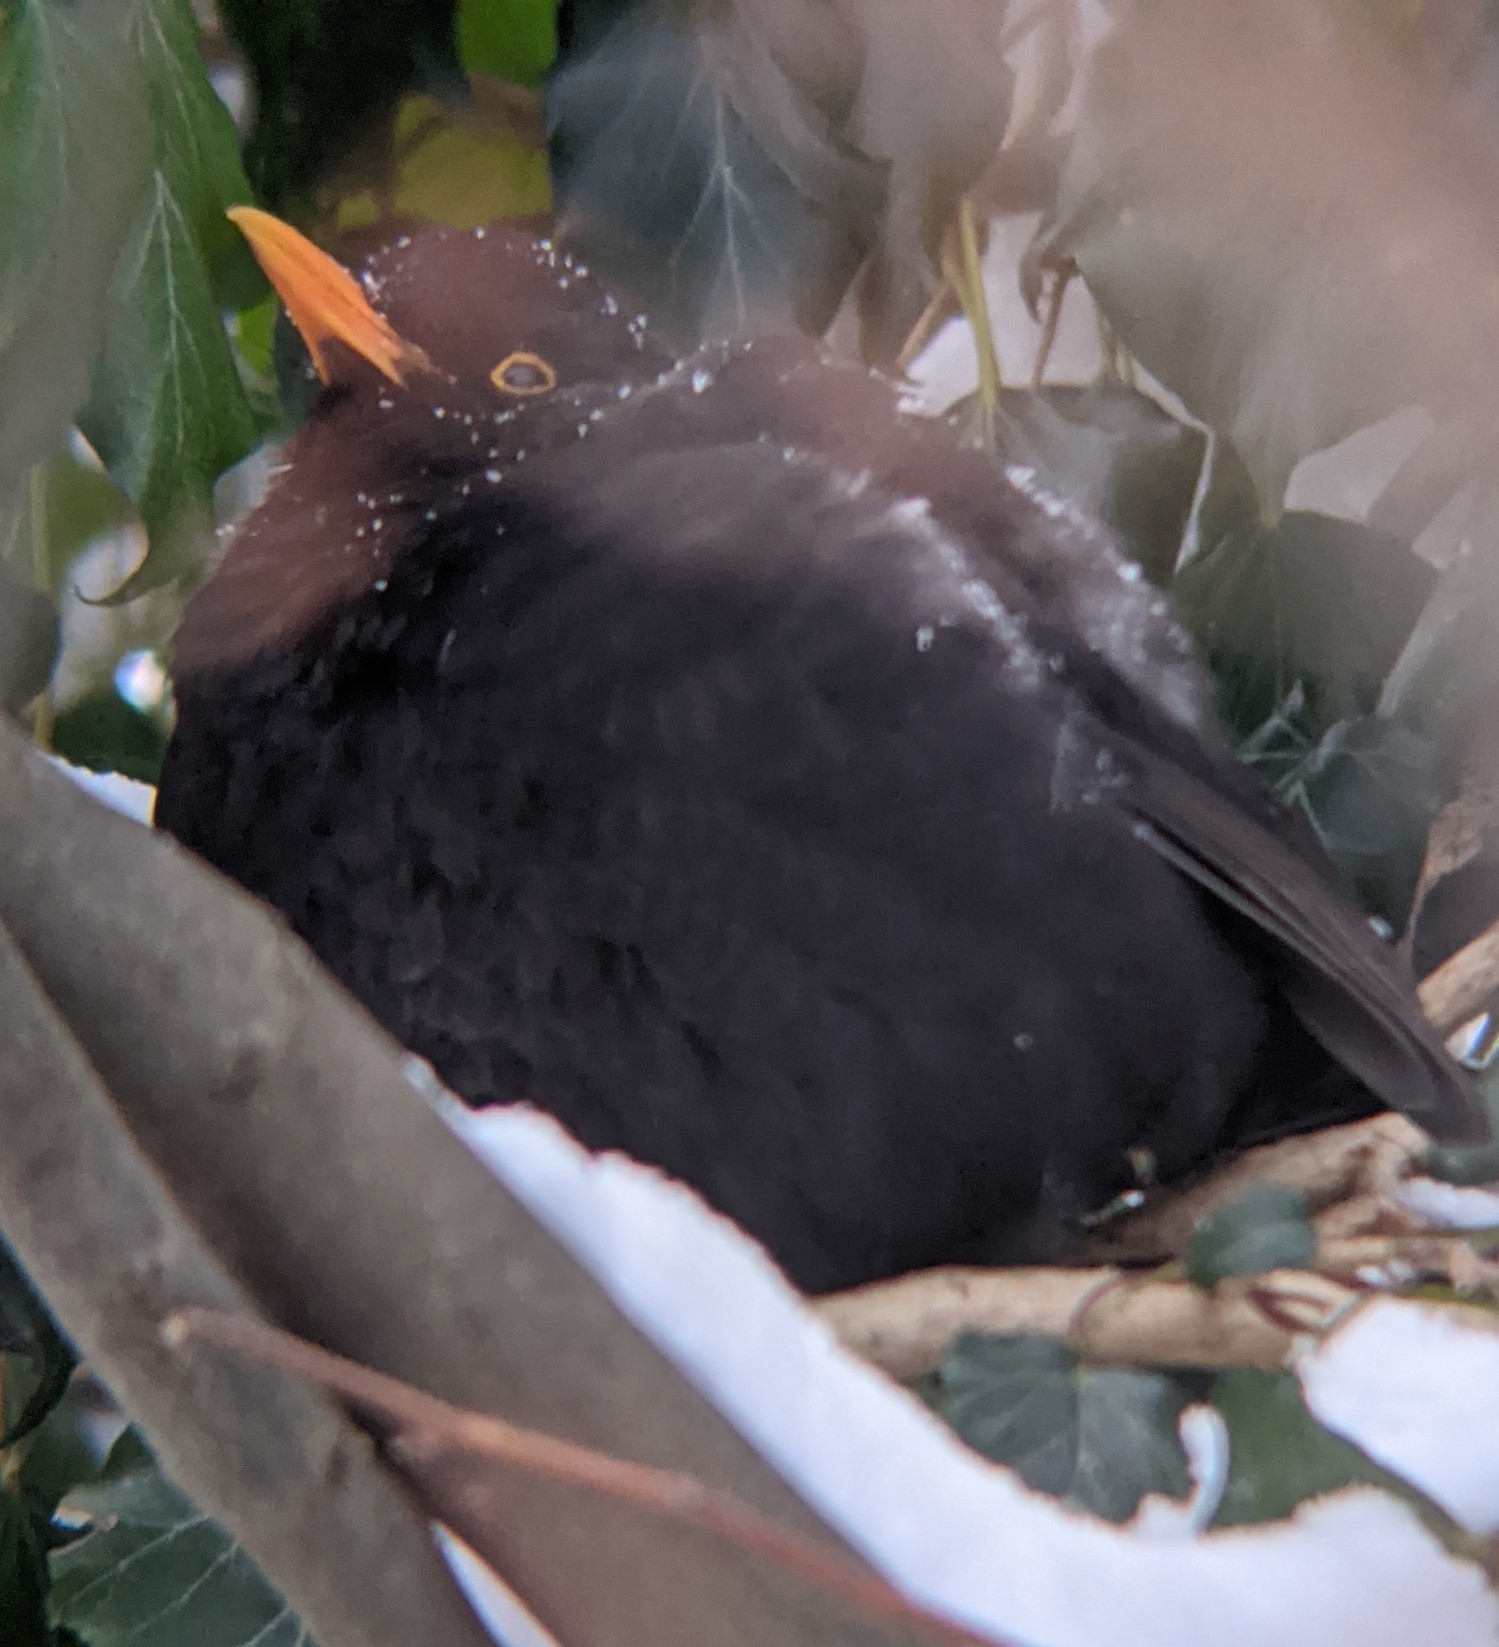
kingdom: Animalia
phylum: Chordata
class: Aves
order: Passeriformes
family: Turdidae
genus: Turdus
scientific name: Turdus merula
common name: Common blackbird
